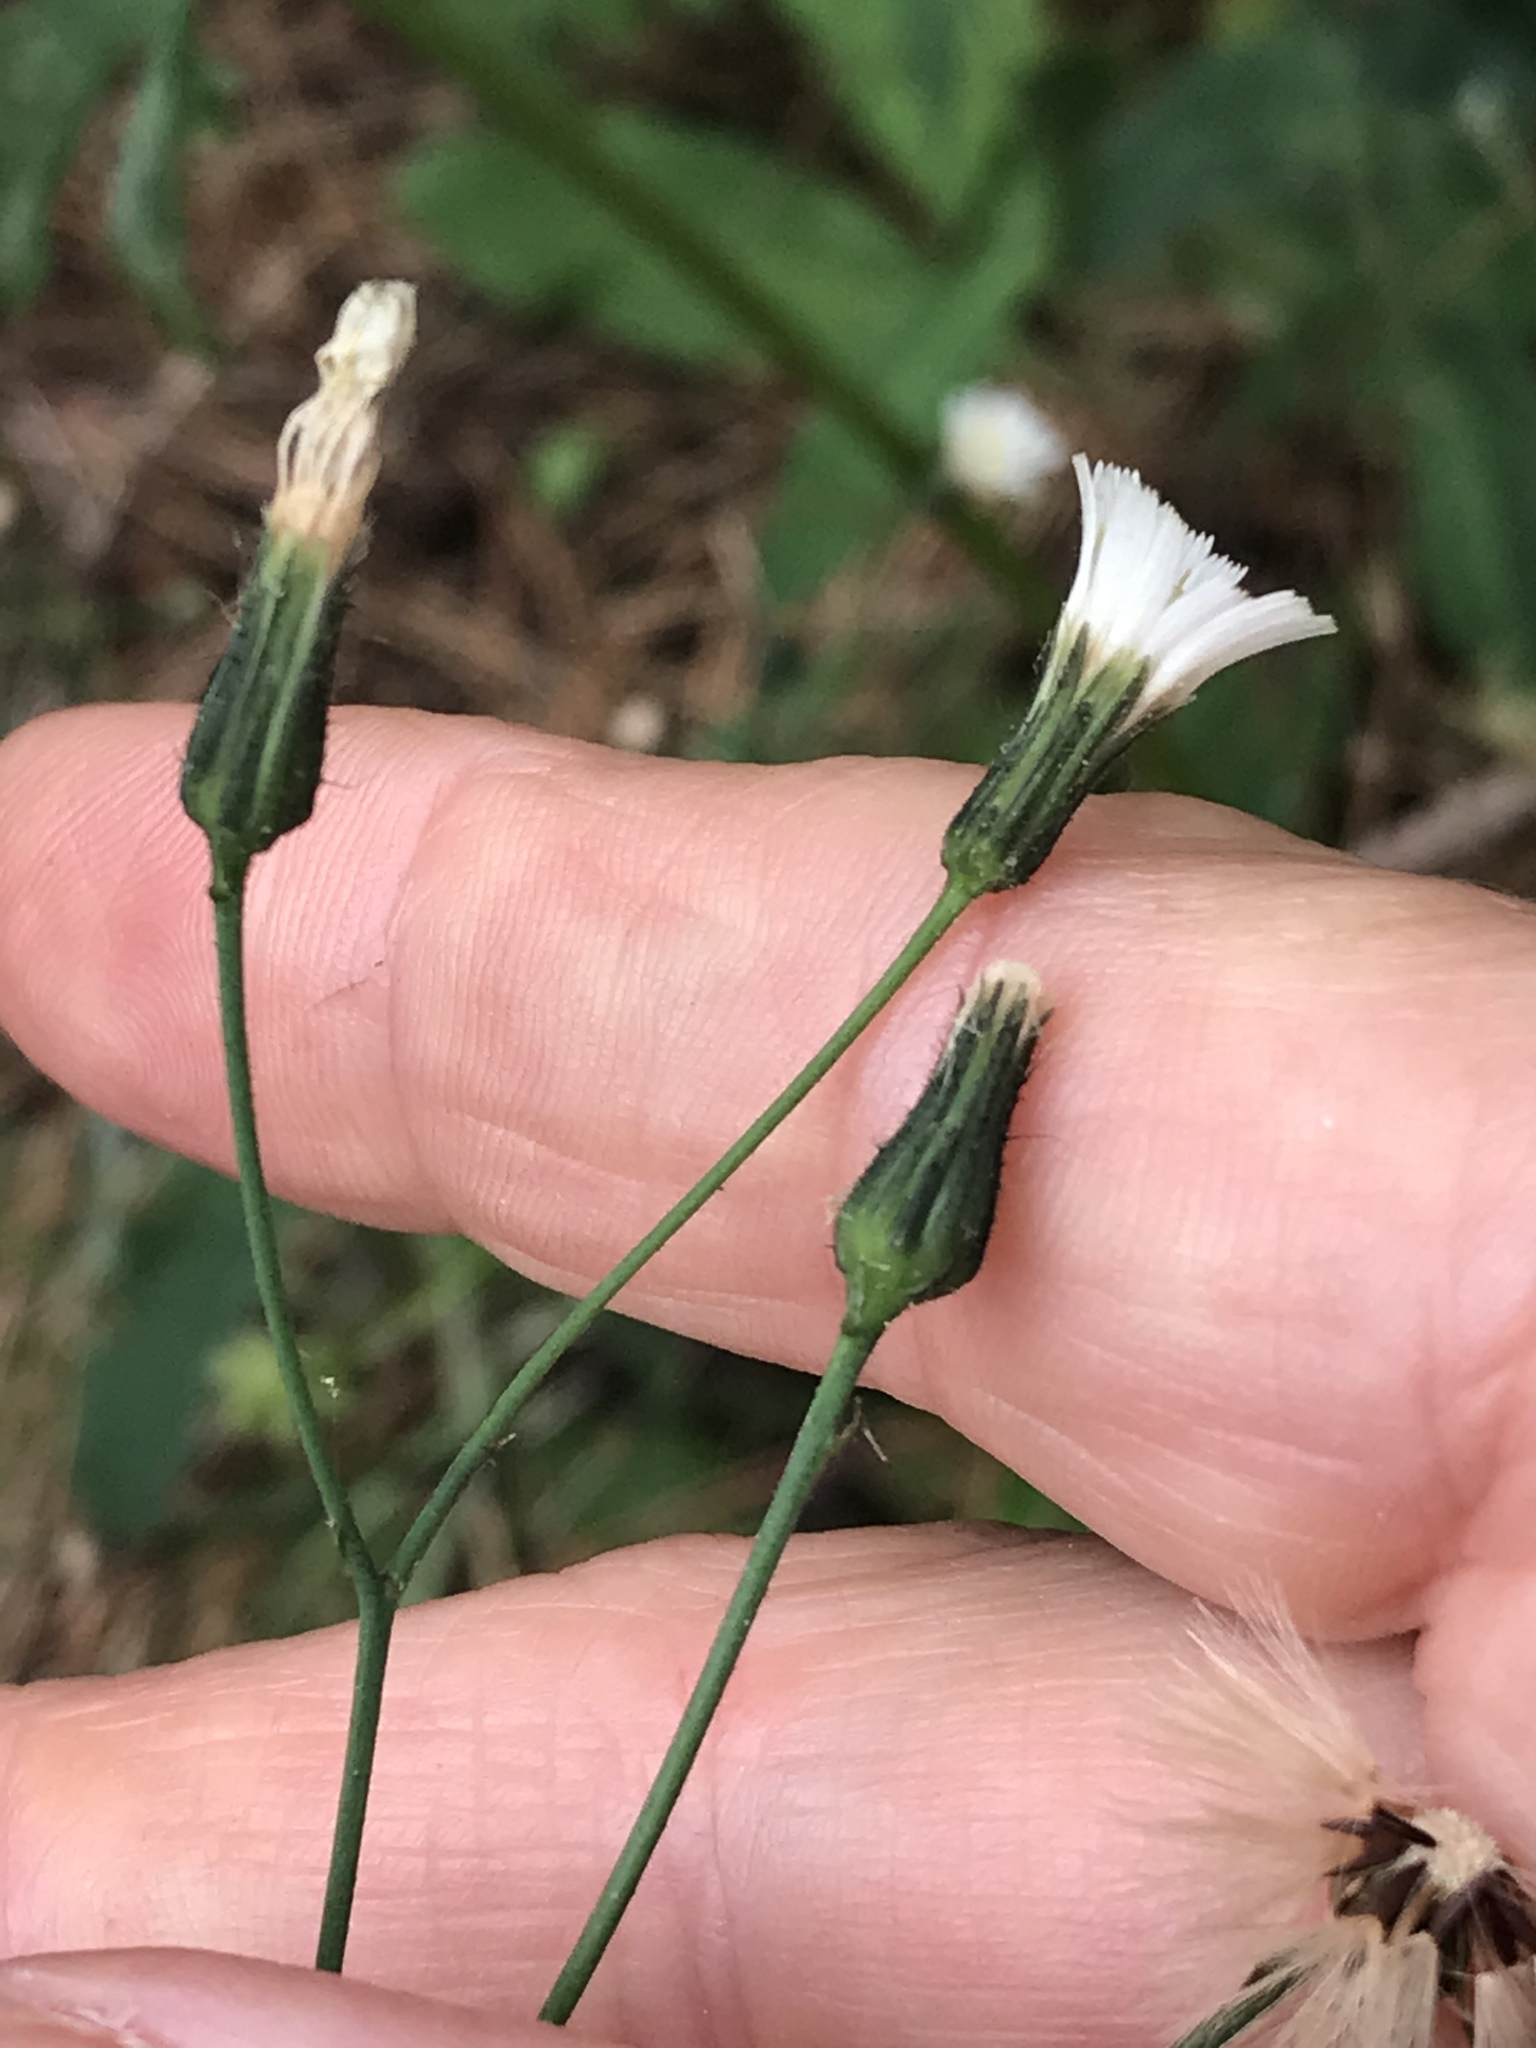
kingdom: Plantae
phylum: Tracheophyta
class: Magnoliopsida
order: Asterales
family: Asteraceae
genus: Hieracium
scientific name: Hieracium albiflorum
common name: White hawkweed
